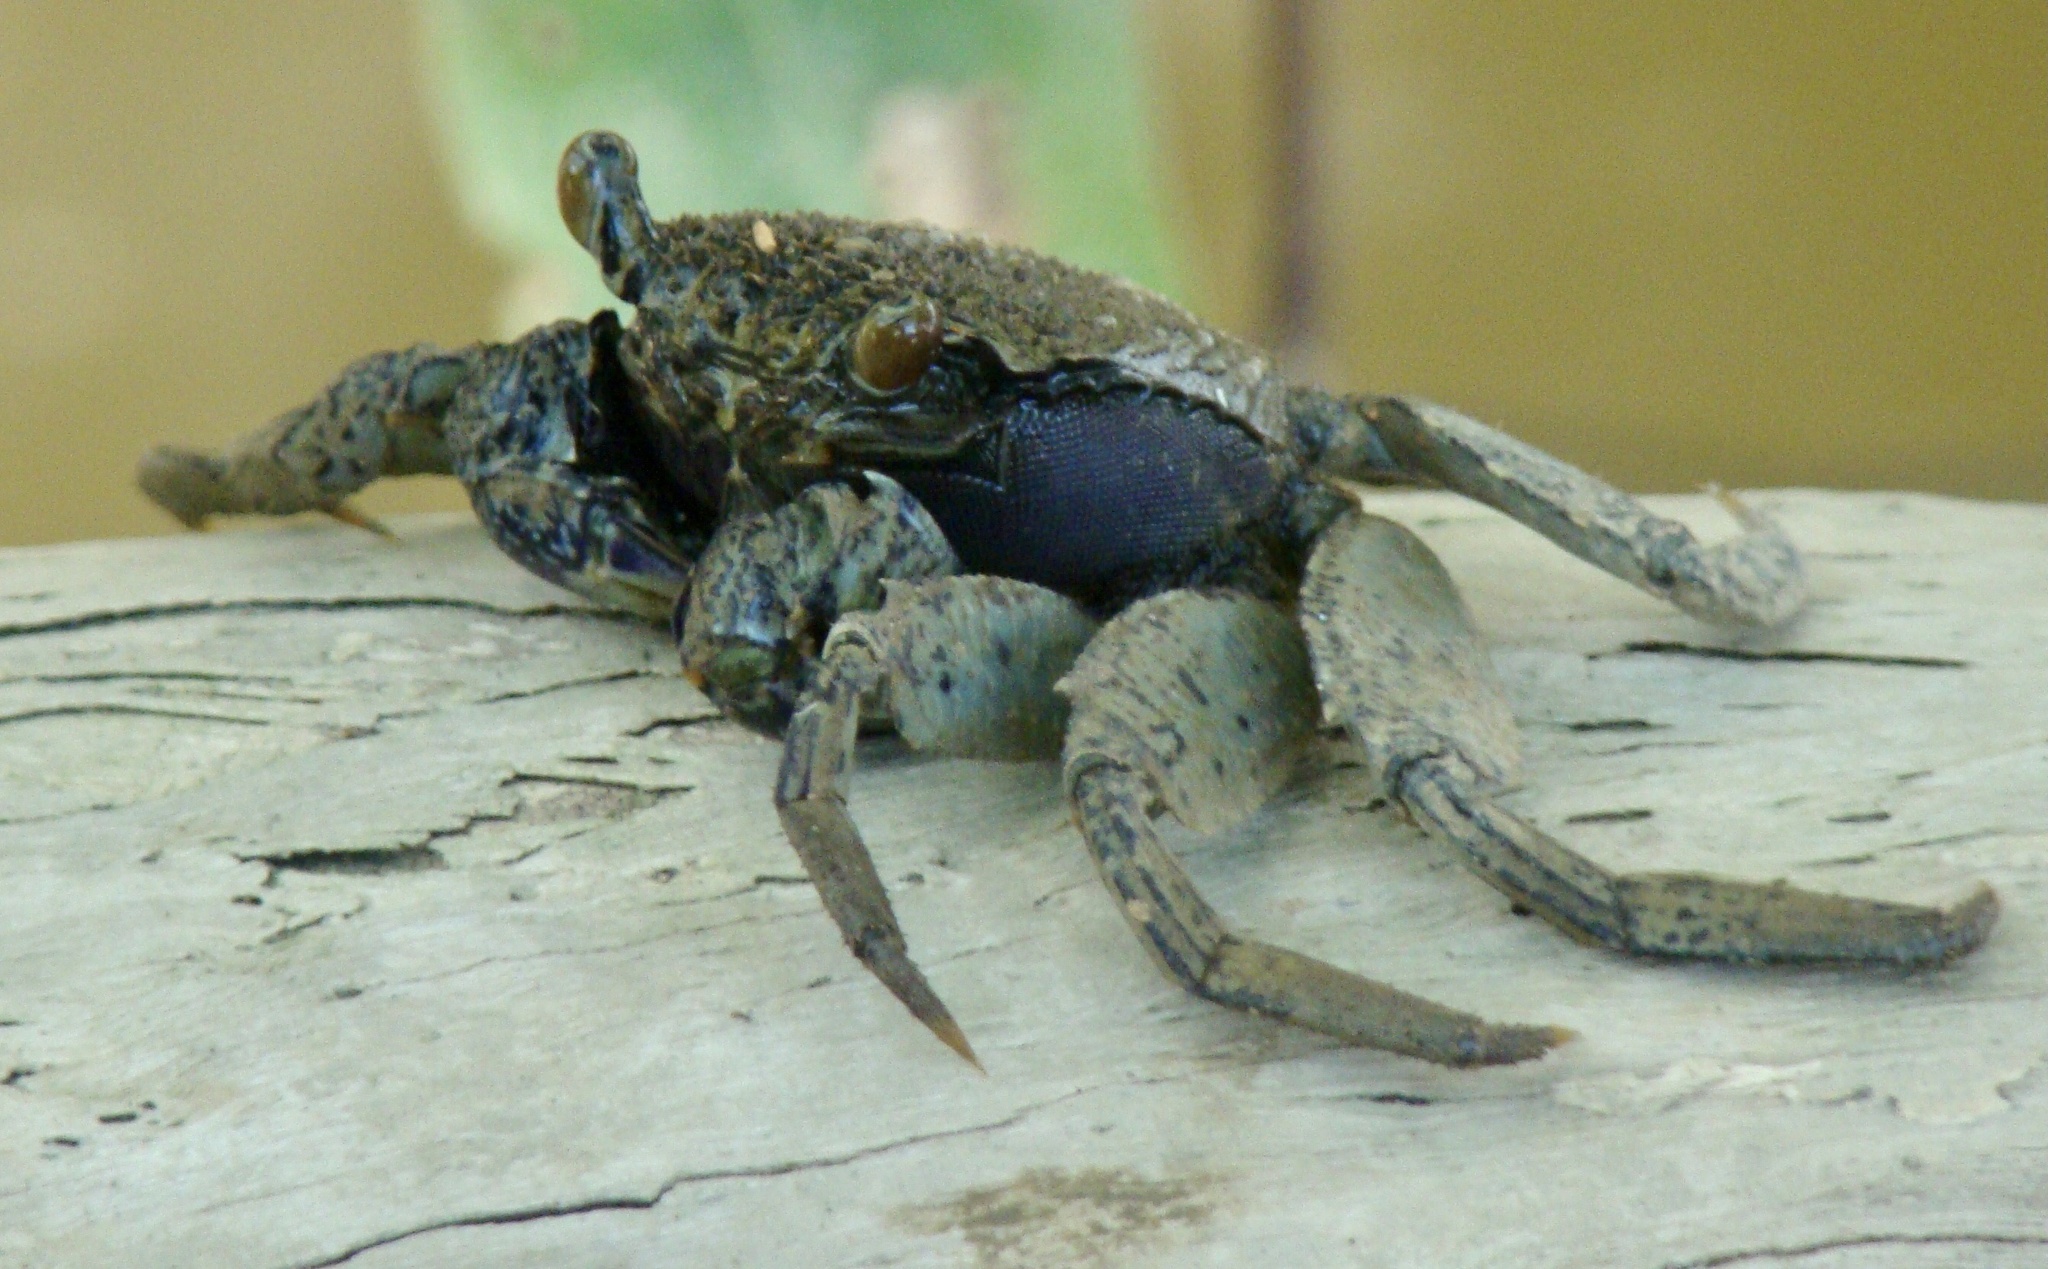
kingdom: Animalia
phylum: Arthropoda
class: Malacostraca
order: Decapoda
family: Sesarmidae
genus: Episesarma
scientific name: Episesarma versicolor
